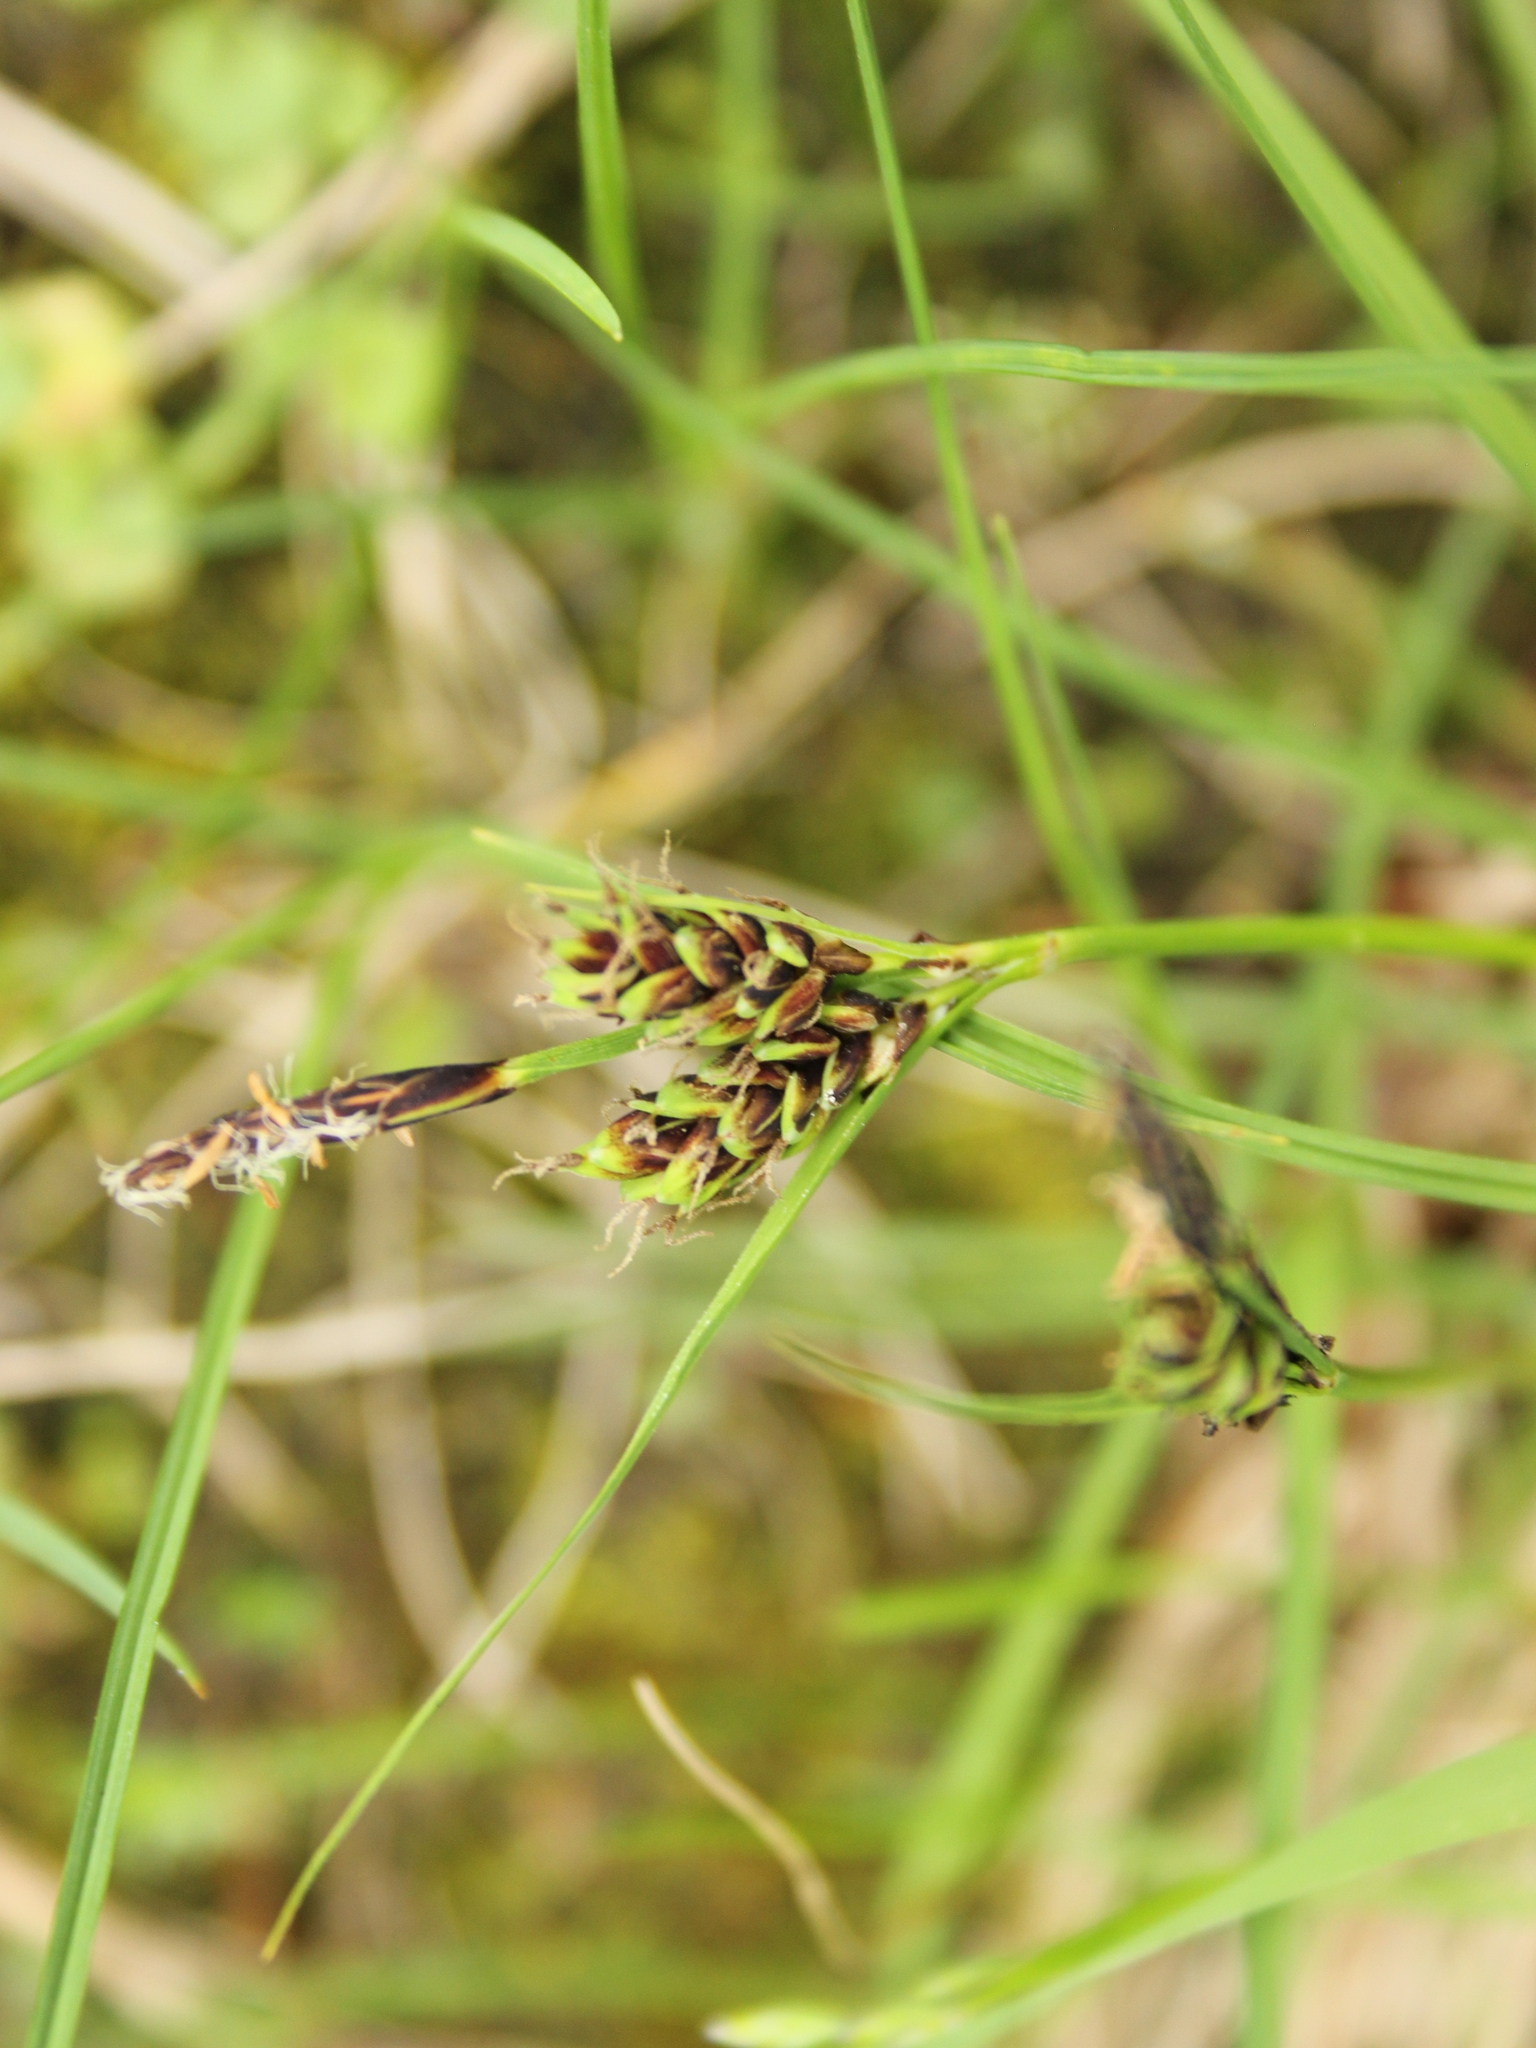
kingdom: Plantae
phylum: Tracheophyta
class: Liliopsida
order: Poales
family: Cyperaceae
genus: Carex
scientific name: Carex gaudichaudiana
